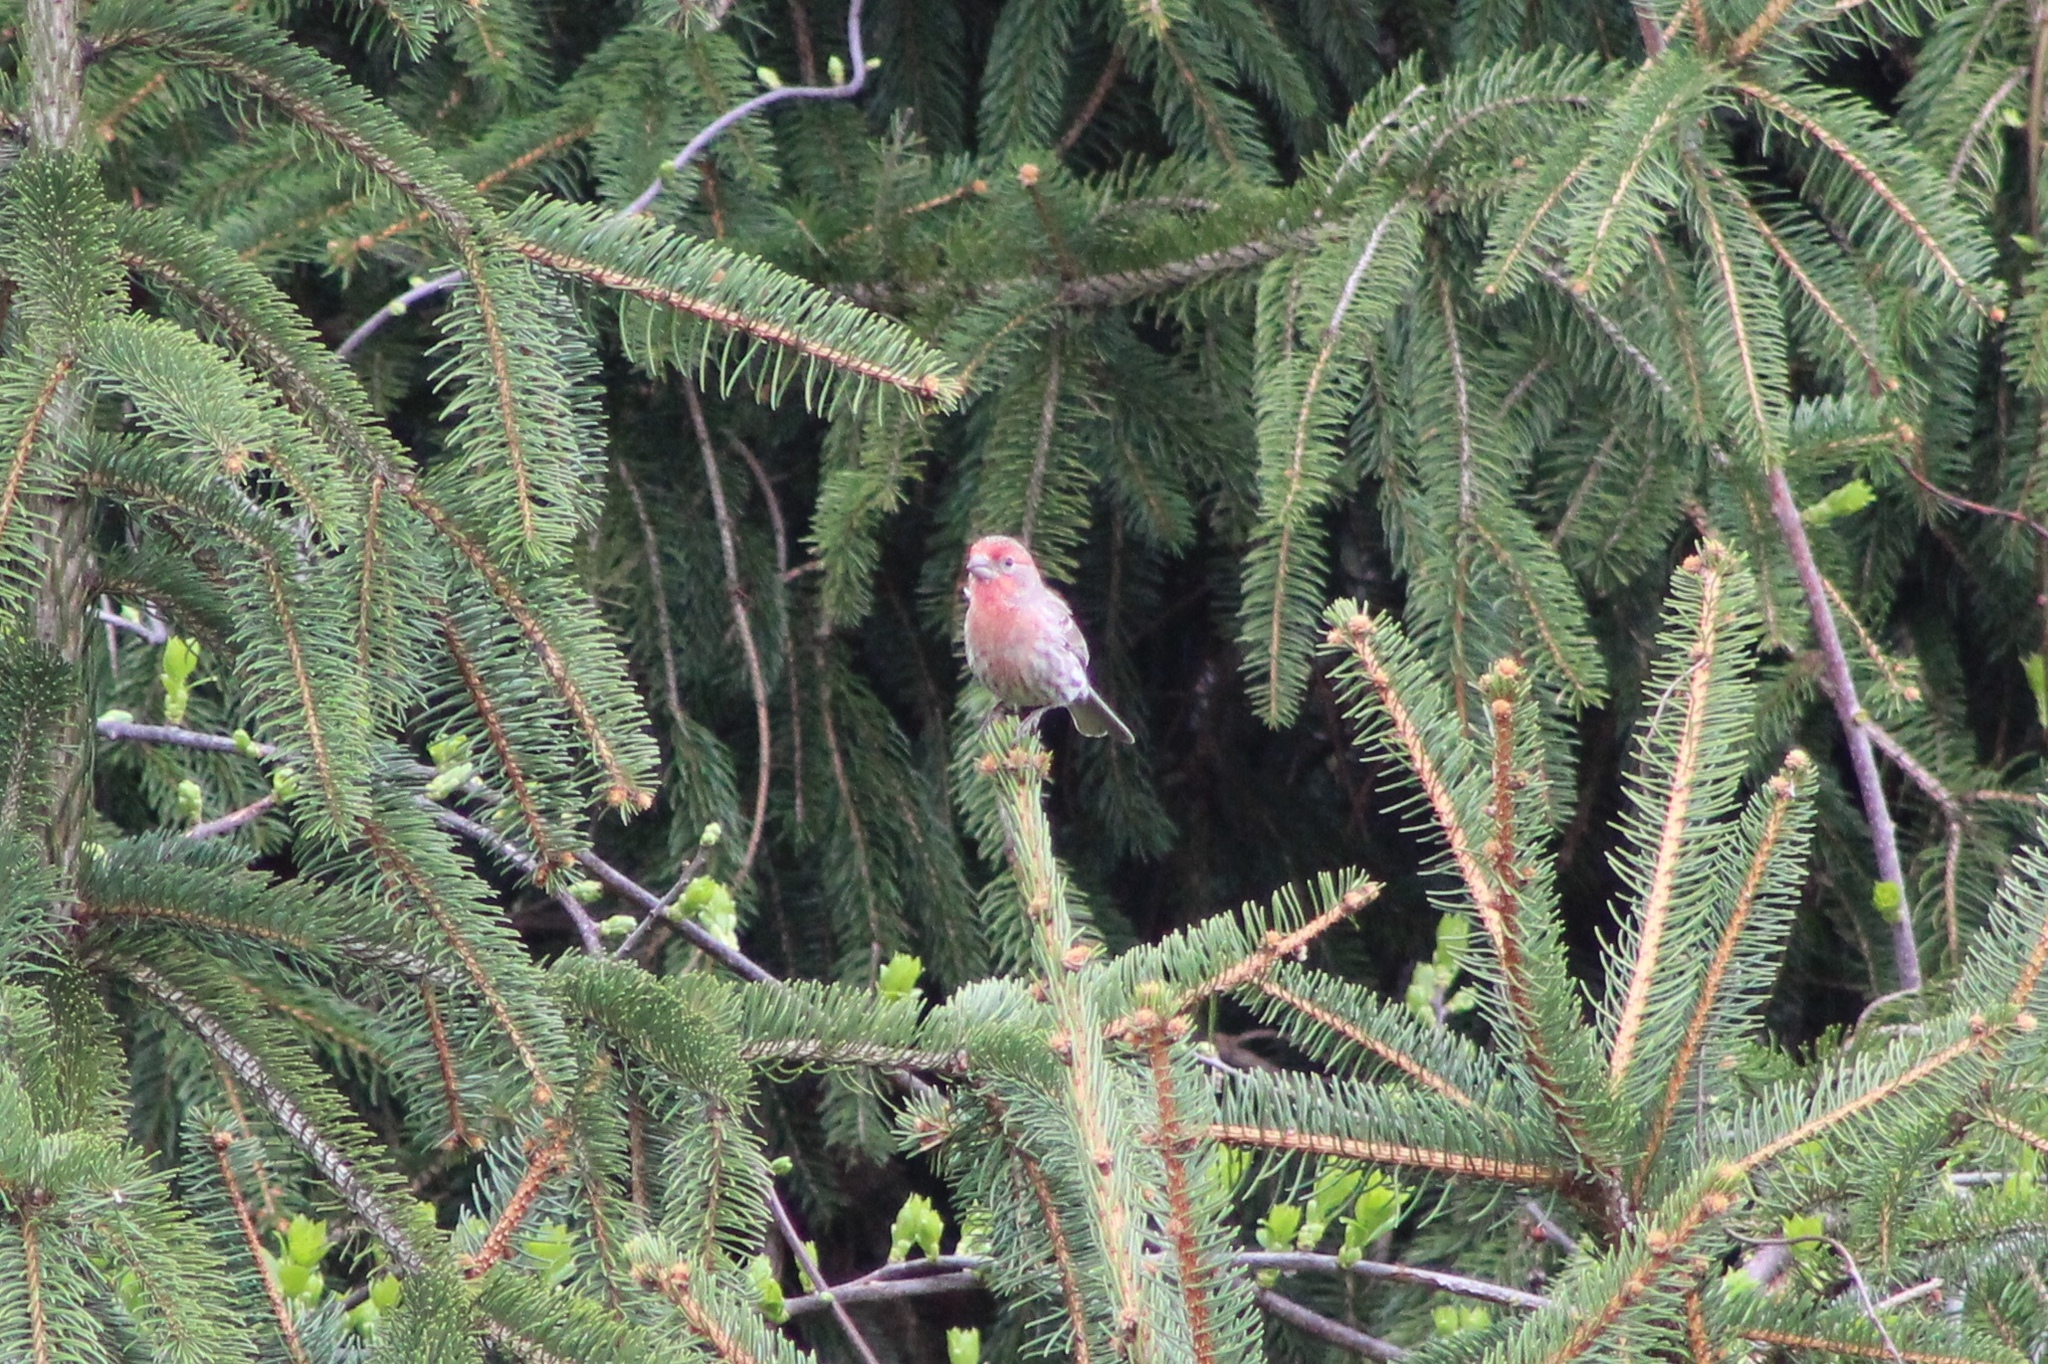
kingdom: Animalia
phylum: Chordata
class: Aves
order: Passeriformes
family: Fringillidae
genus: Haemorhous
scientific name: Haemorhous mexicanus
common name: House finch
